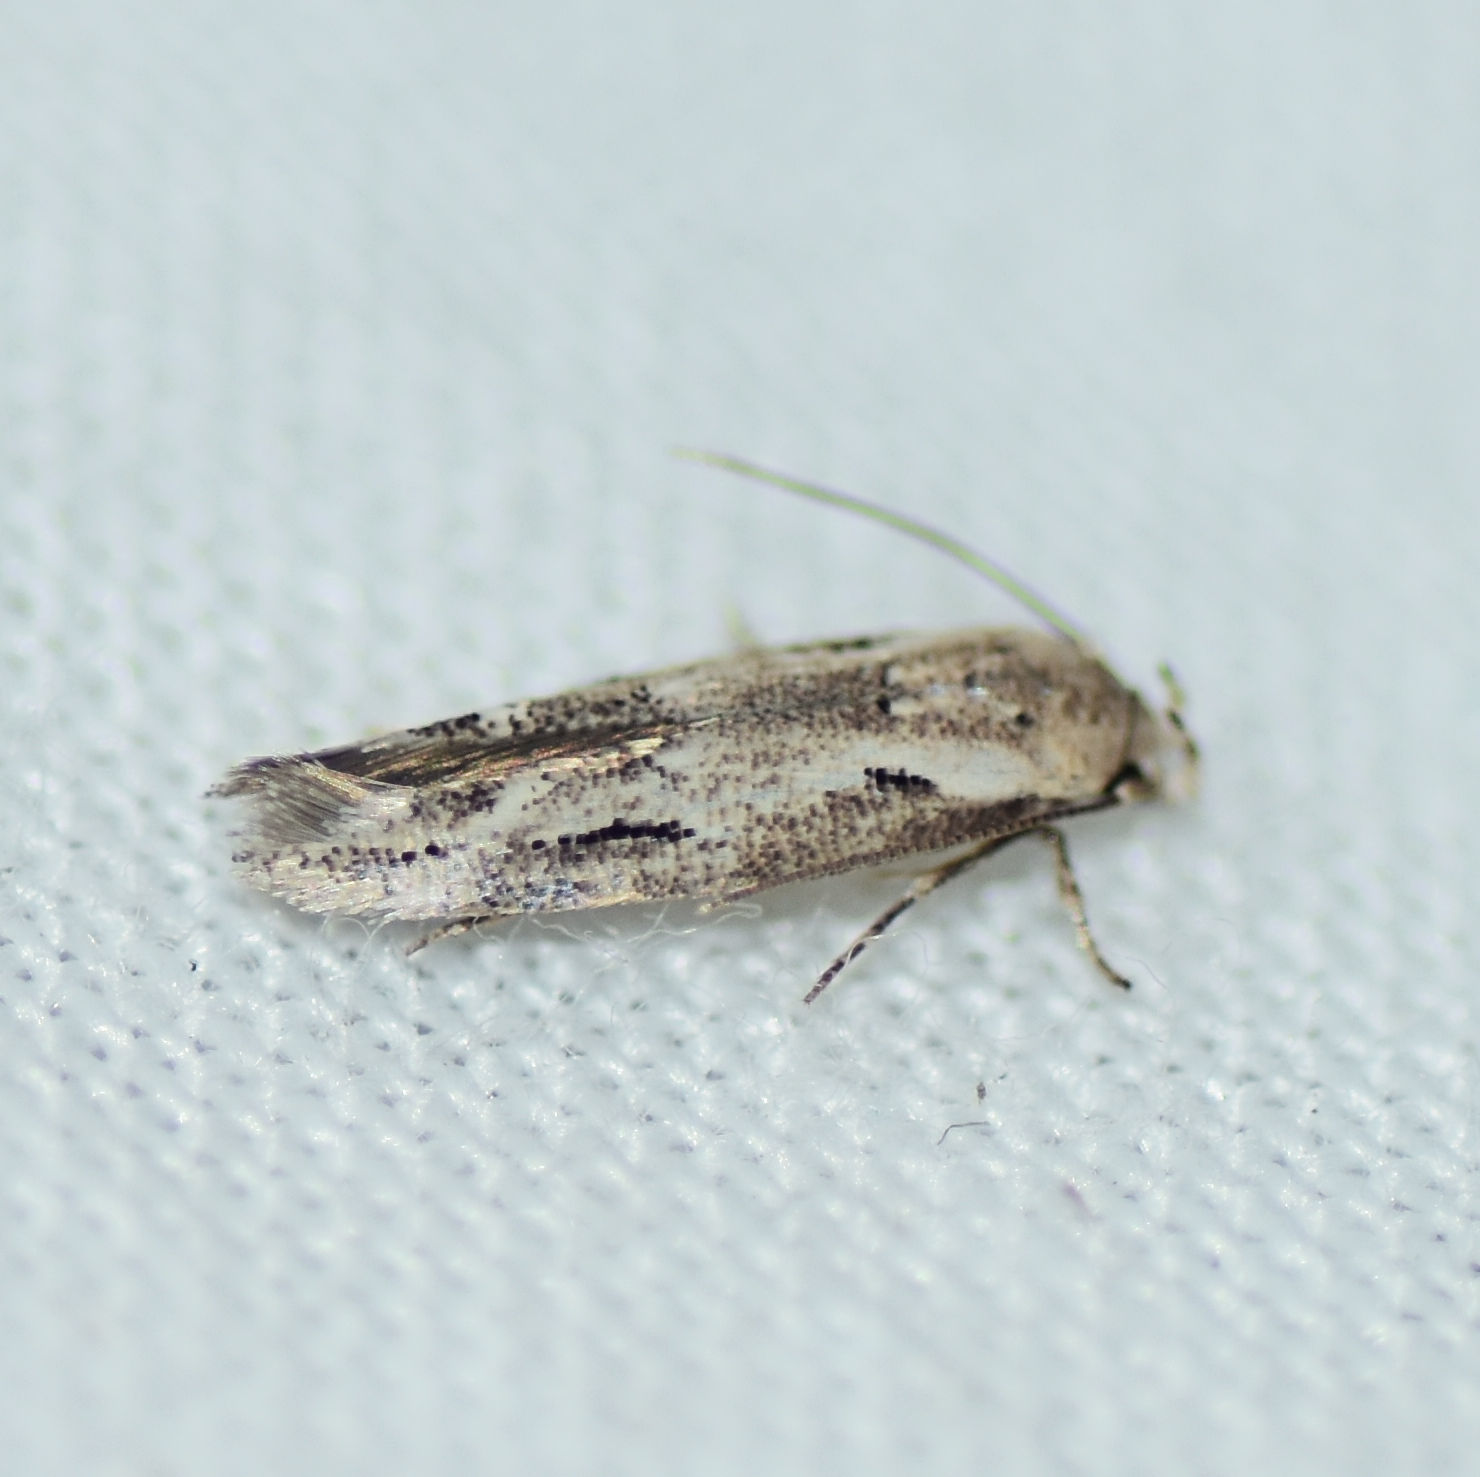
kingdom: Animalia
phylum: Arthropoda
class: Insecta
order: Lepidoptera
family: Momphidae
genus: Mompha
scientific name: Mompha brevivittella
